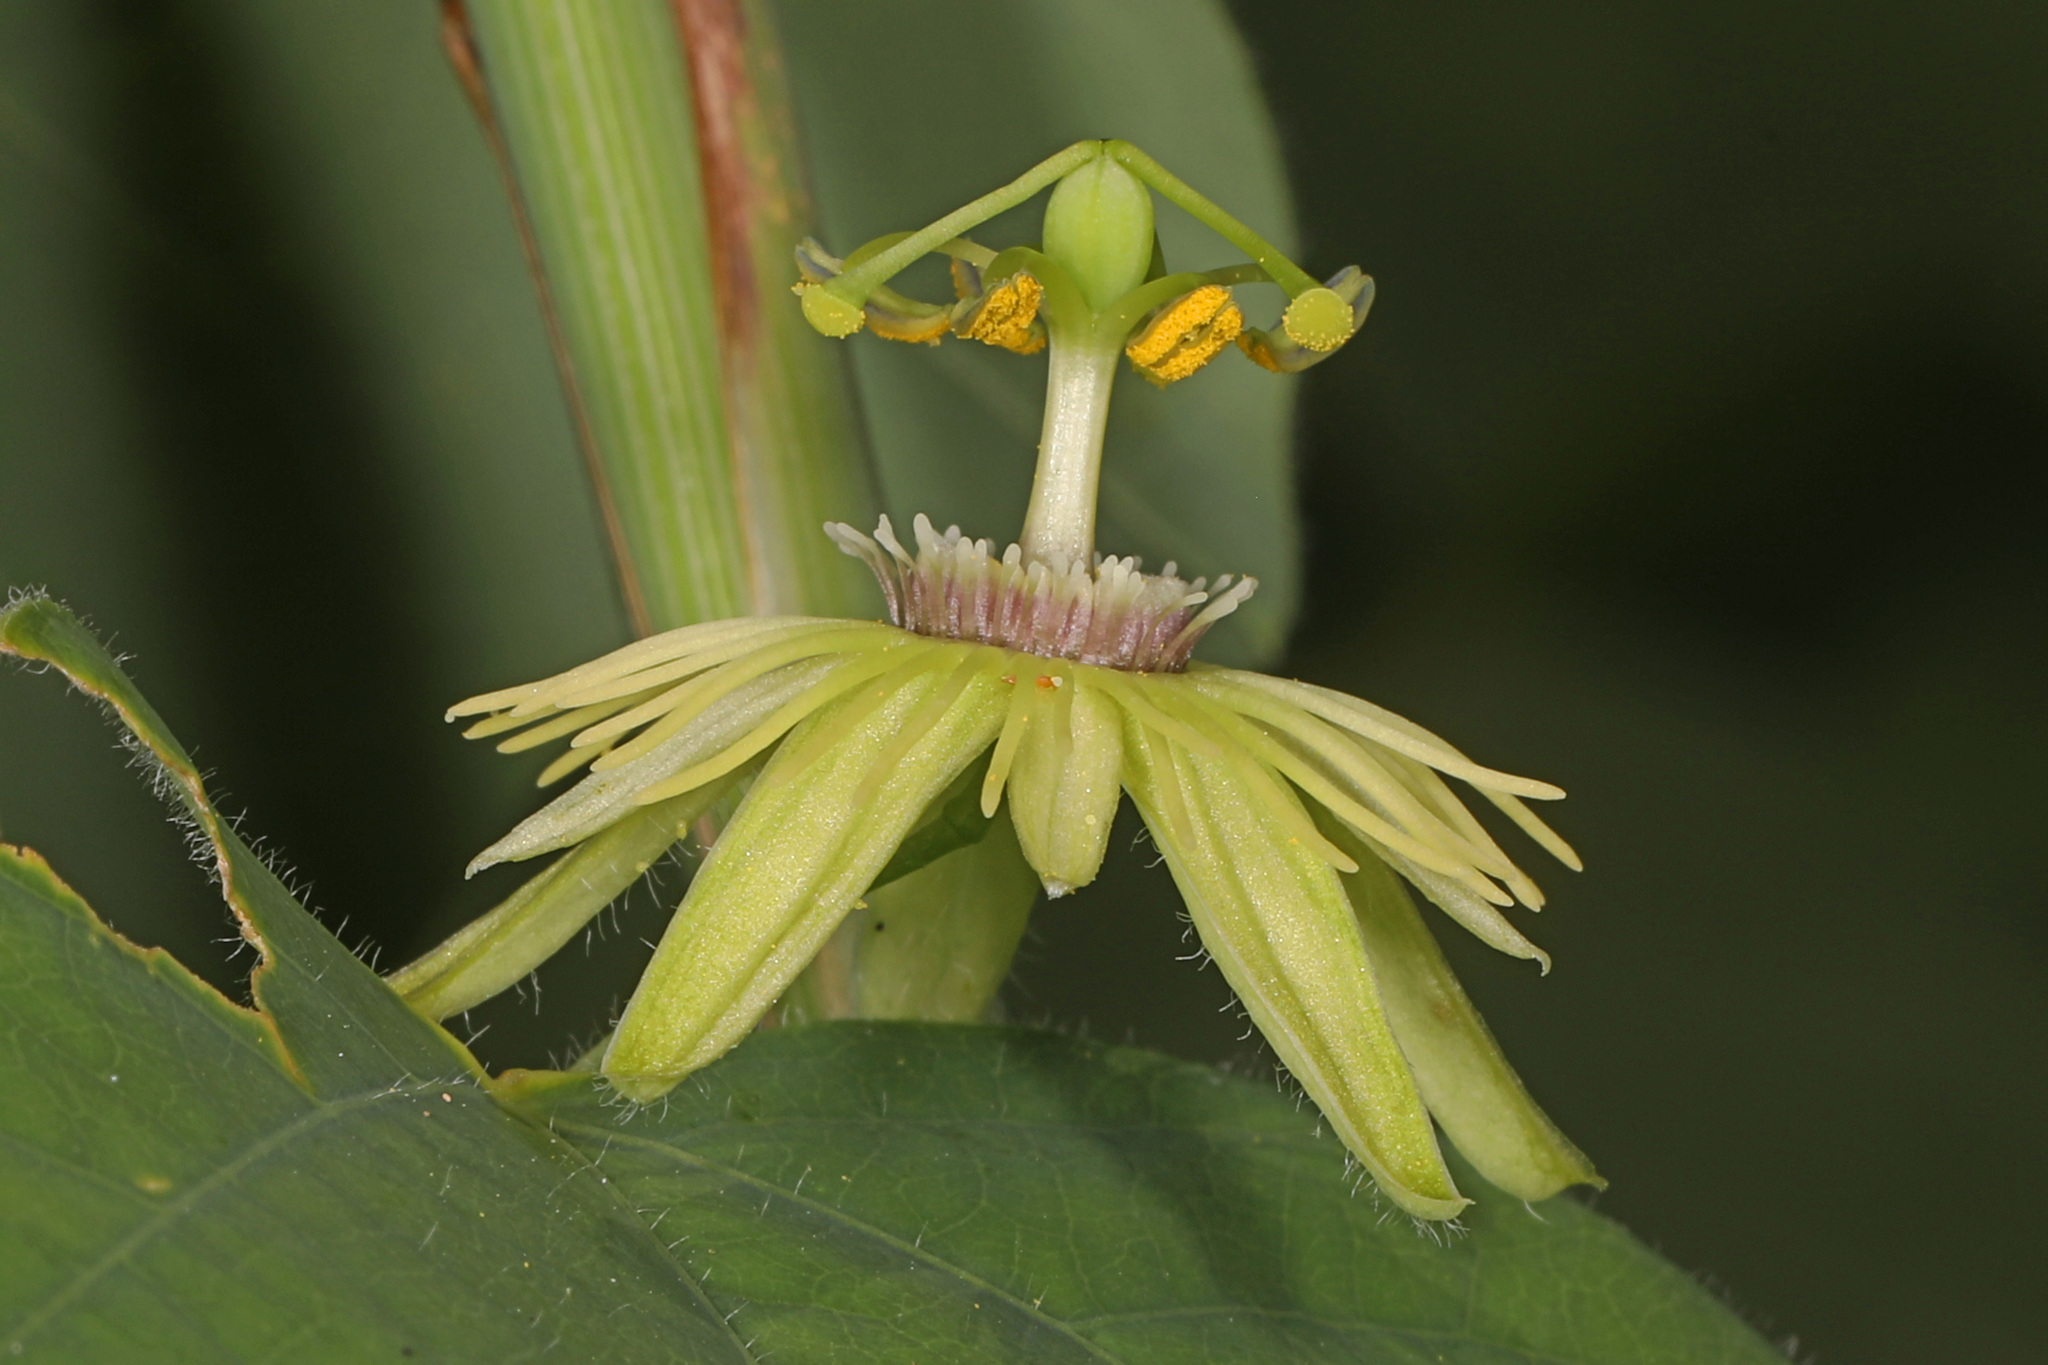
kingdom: Plantae
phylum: Tracheophyta
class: Magnoliopsida
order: Malpighiales
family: Passifloraceae
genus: Passiflora
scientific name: Passiflora lutea
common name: Yellow passionflower
